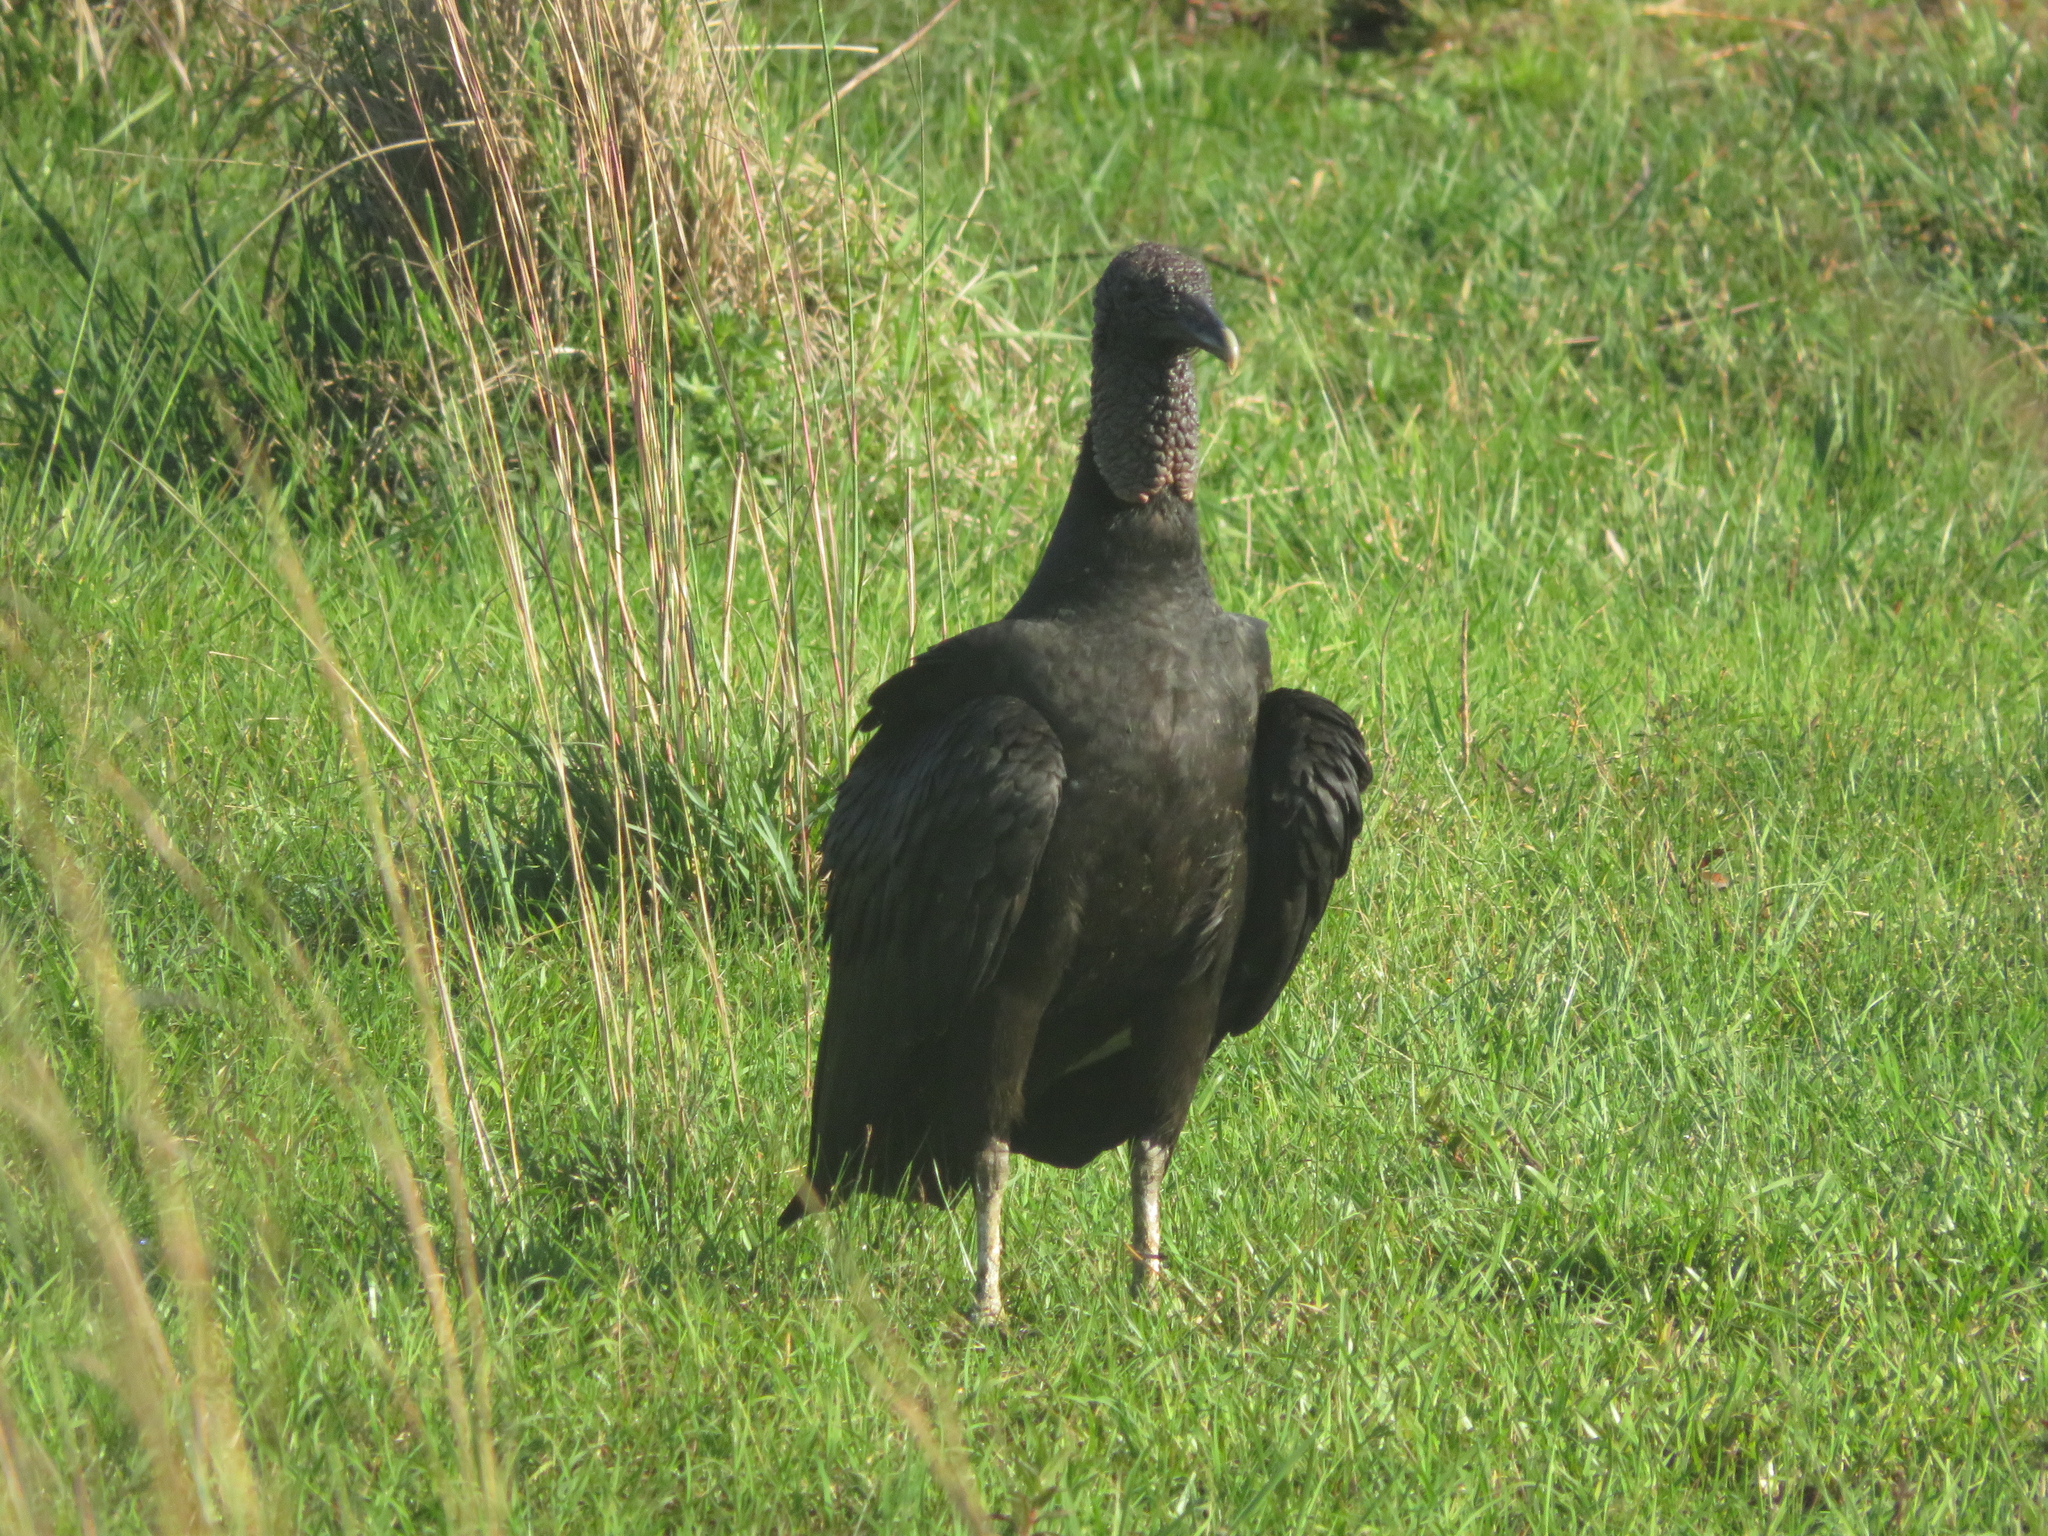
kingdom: Animalia
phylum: Chordata
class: Aves
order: Accipitriformes
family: Cathartidae
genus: Coragyps
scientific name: Coragyps atratus
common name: Black vulture
